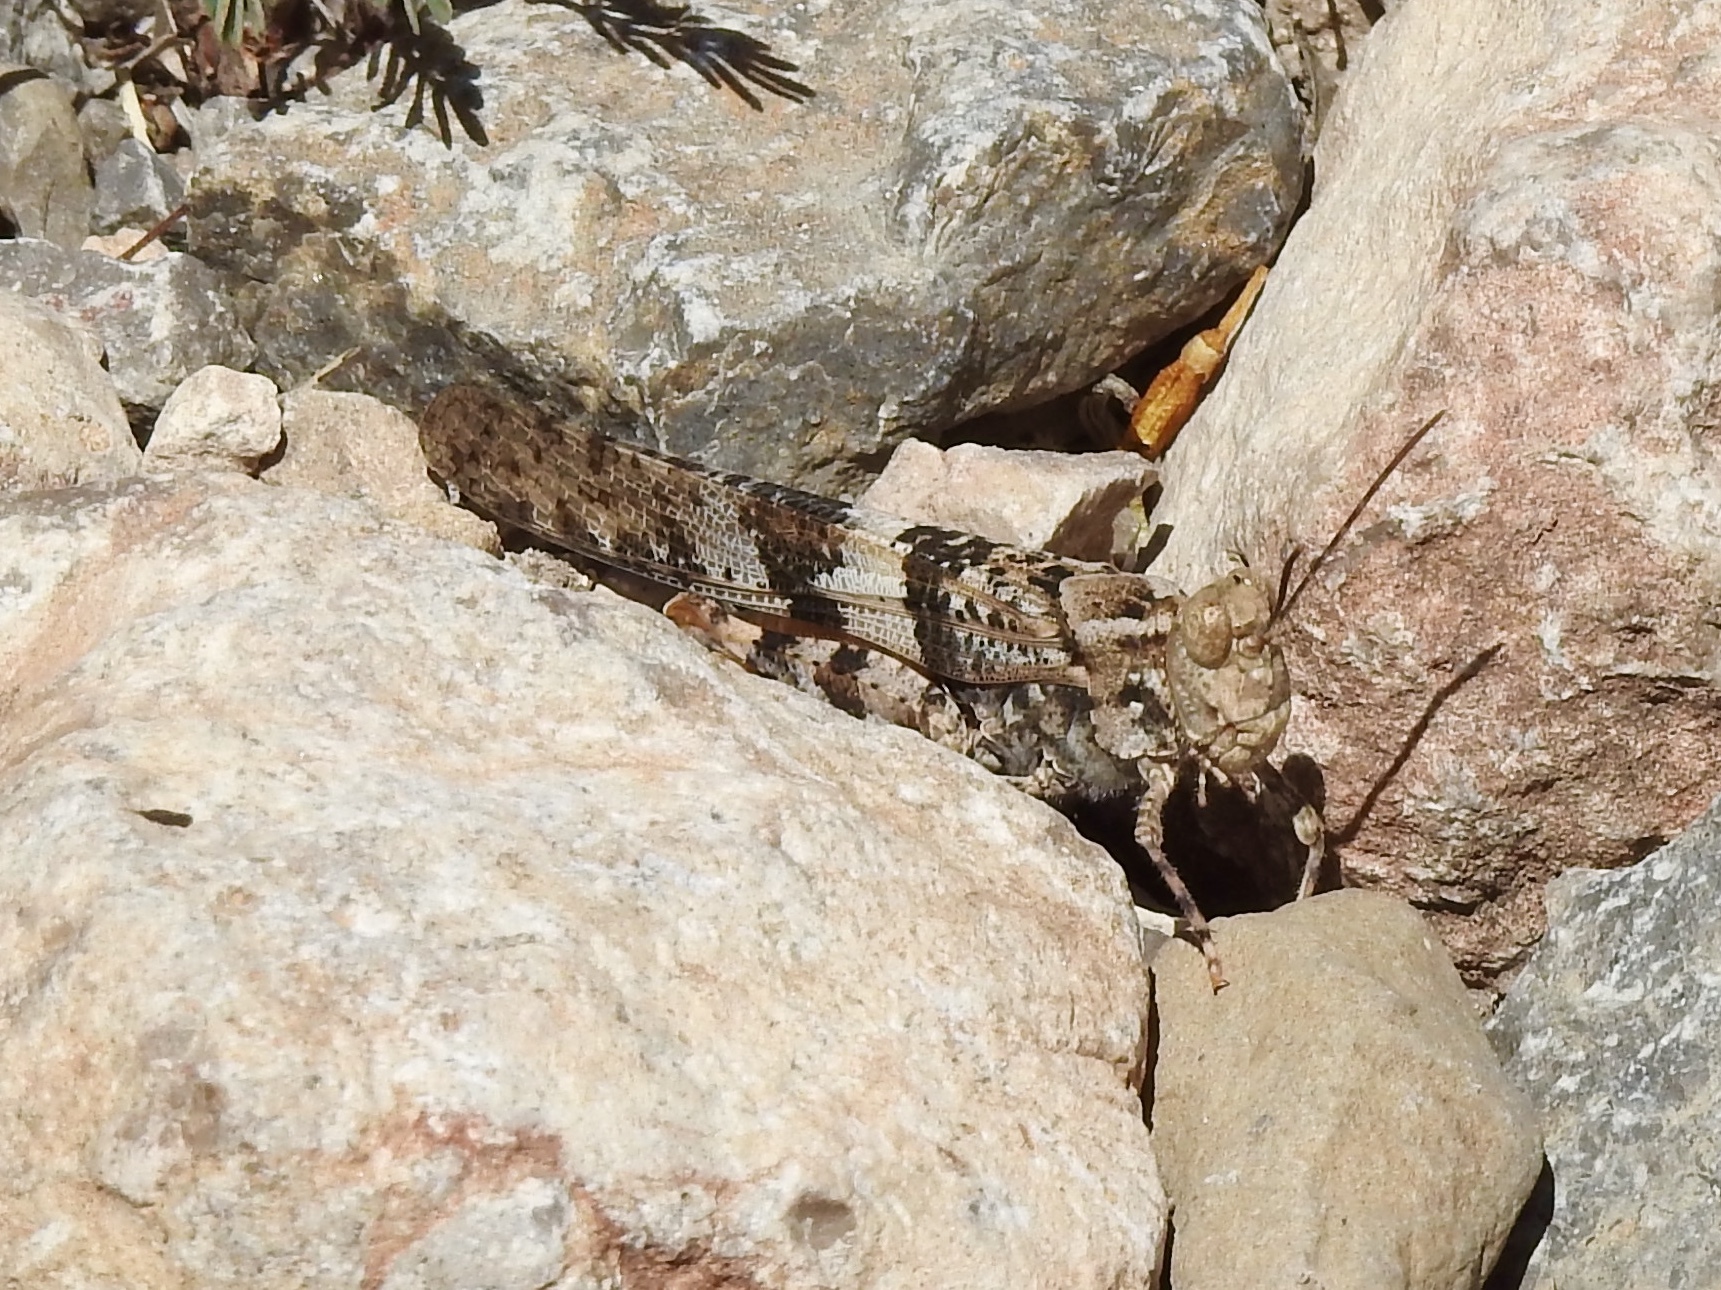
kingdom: Animalia
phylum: Arthropoda
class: Insecta
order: Orthoptera
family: Acrididae
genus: Trimerotropis
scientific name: Trimerotropis pallidipennis
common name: Pallid-winged grasshopper
